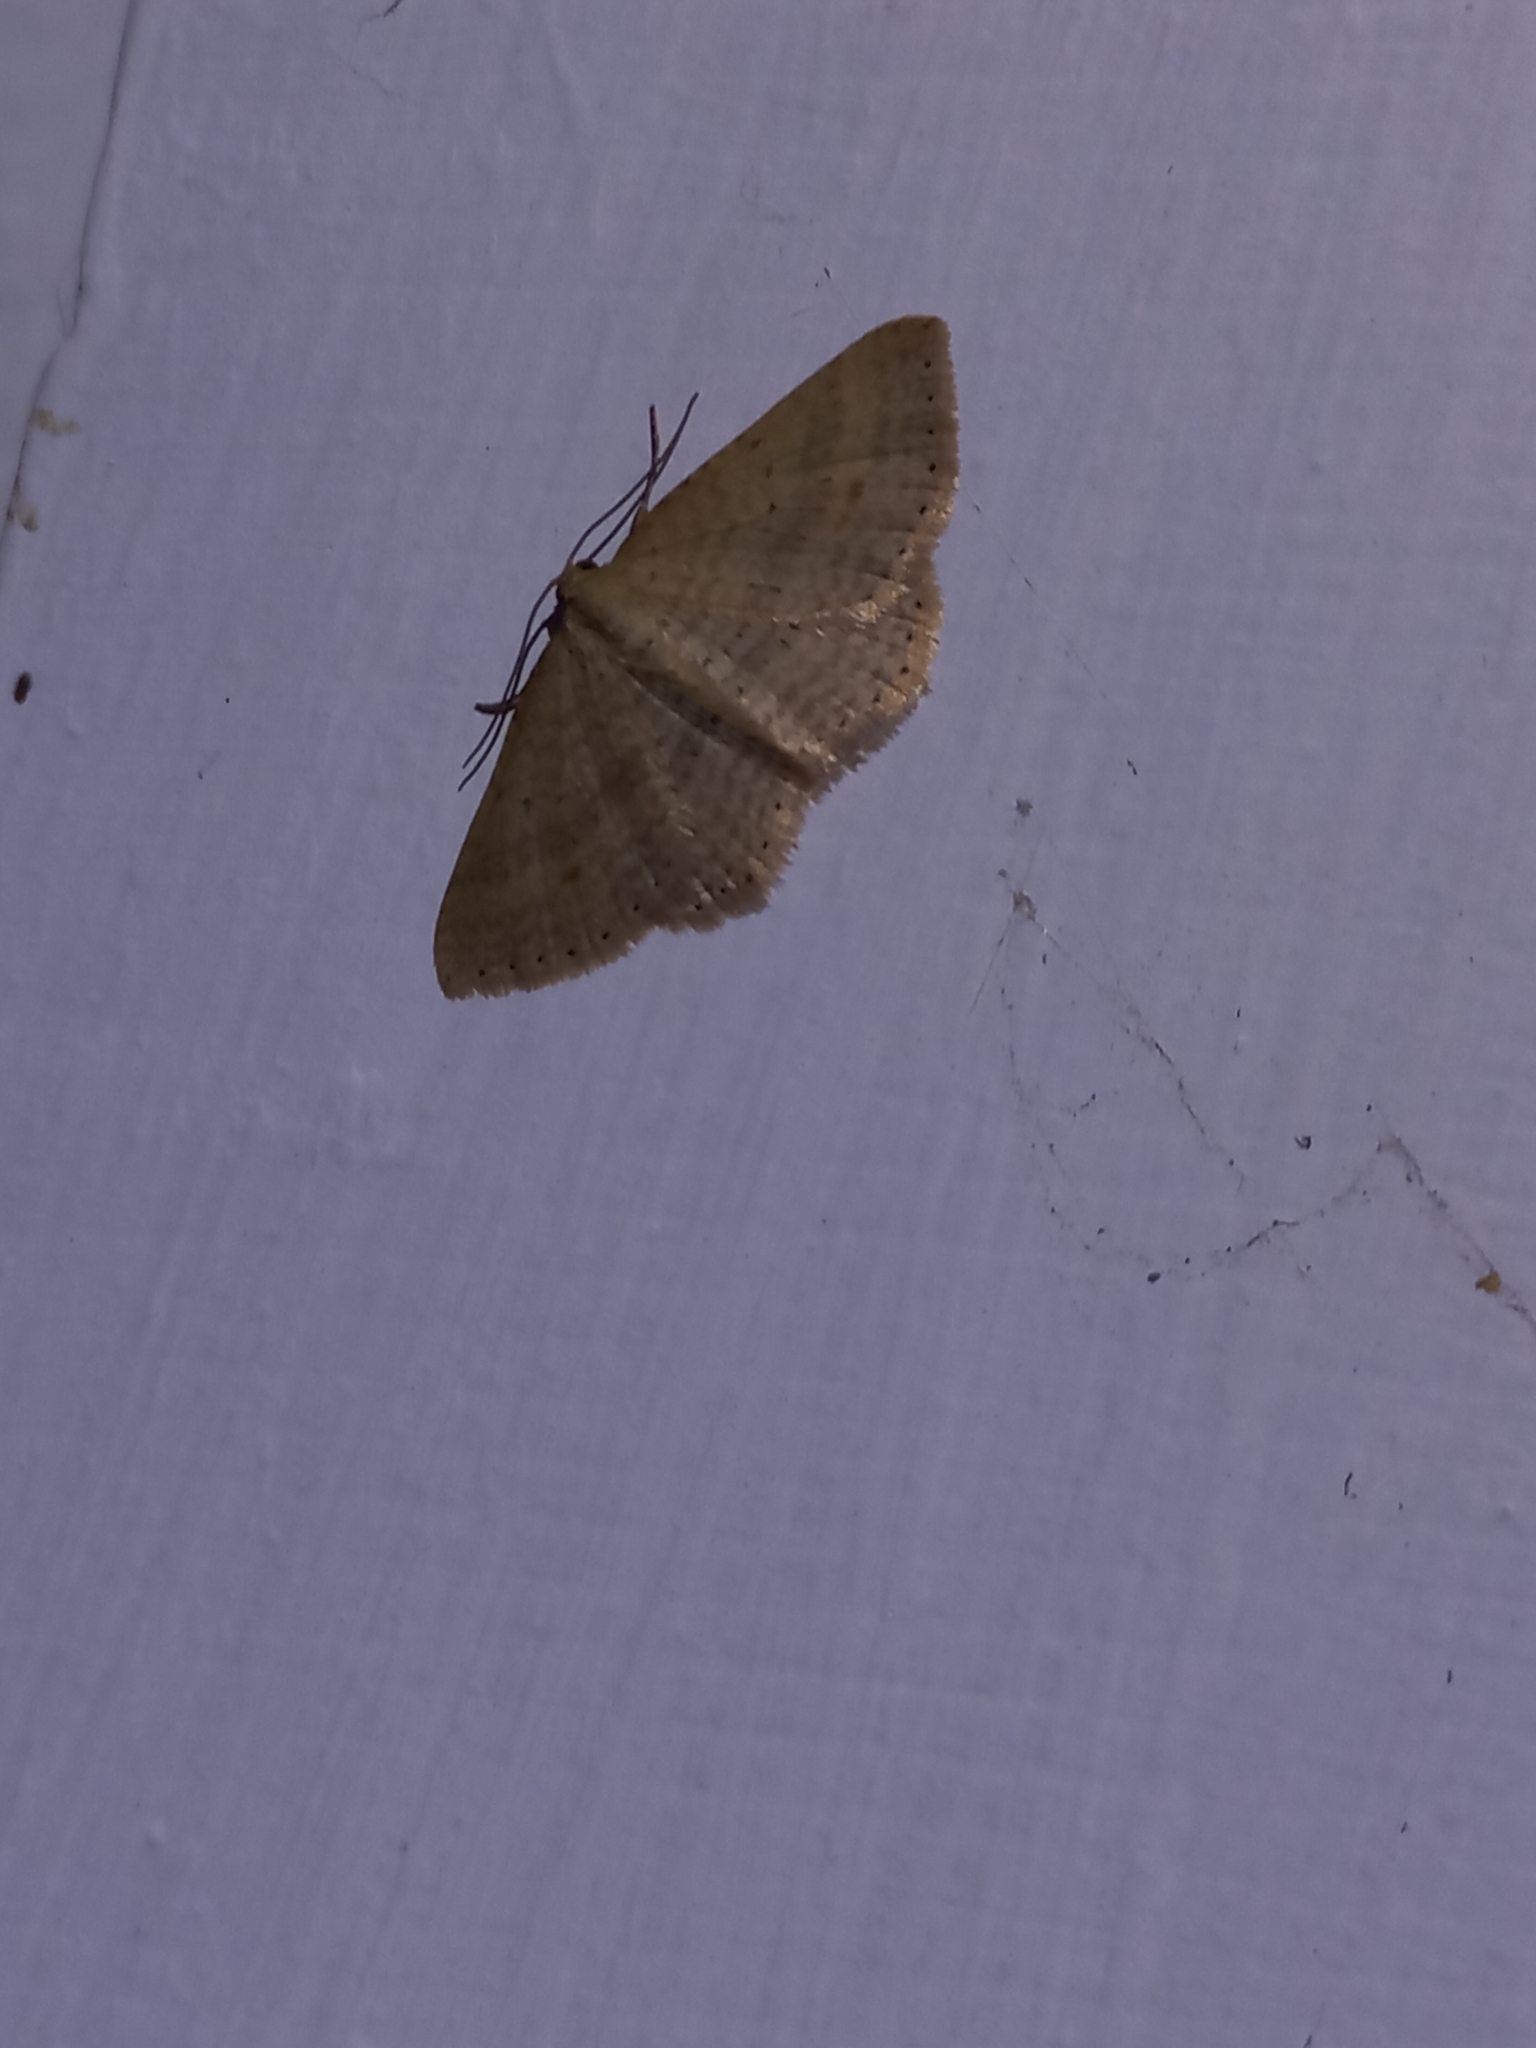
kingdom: Animalia
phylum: Arthropoda
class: Insecta
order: Lepidoptera
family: Geometridae
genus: Epicyme
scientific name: Epicyme rubropunctaria
